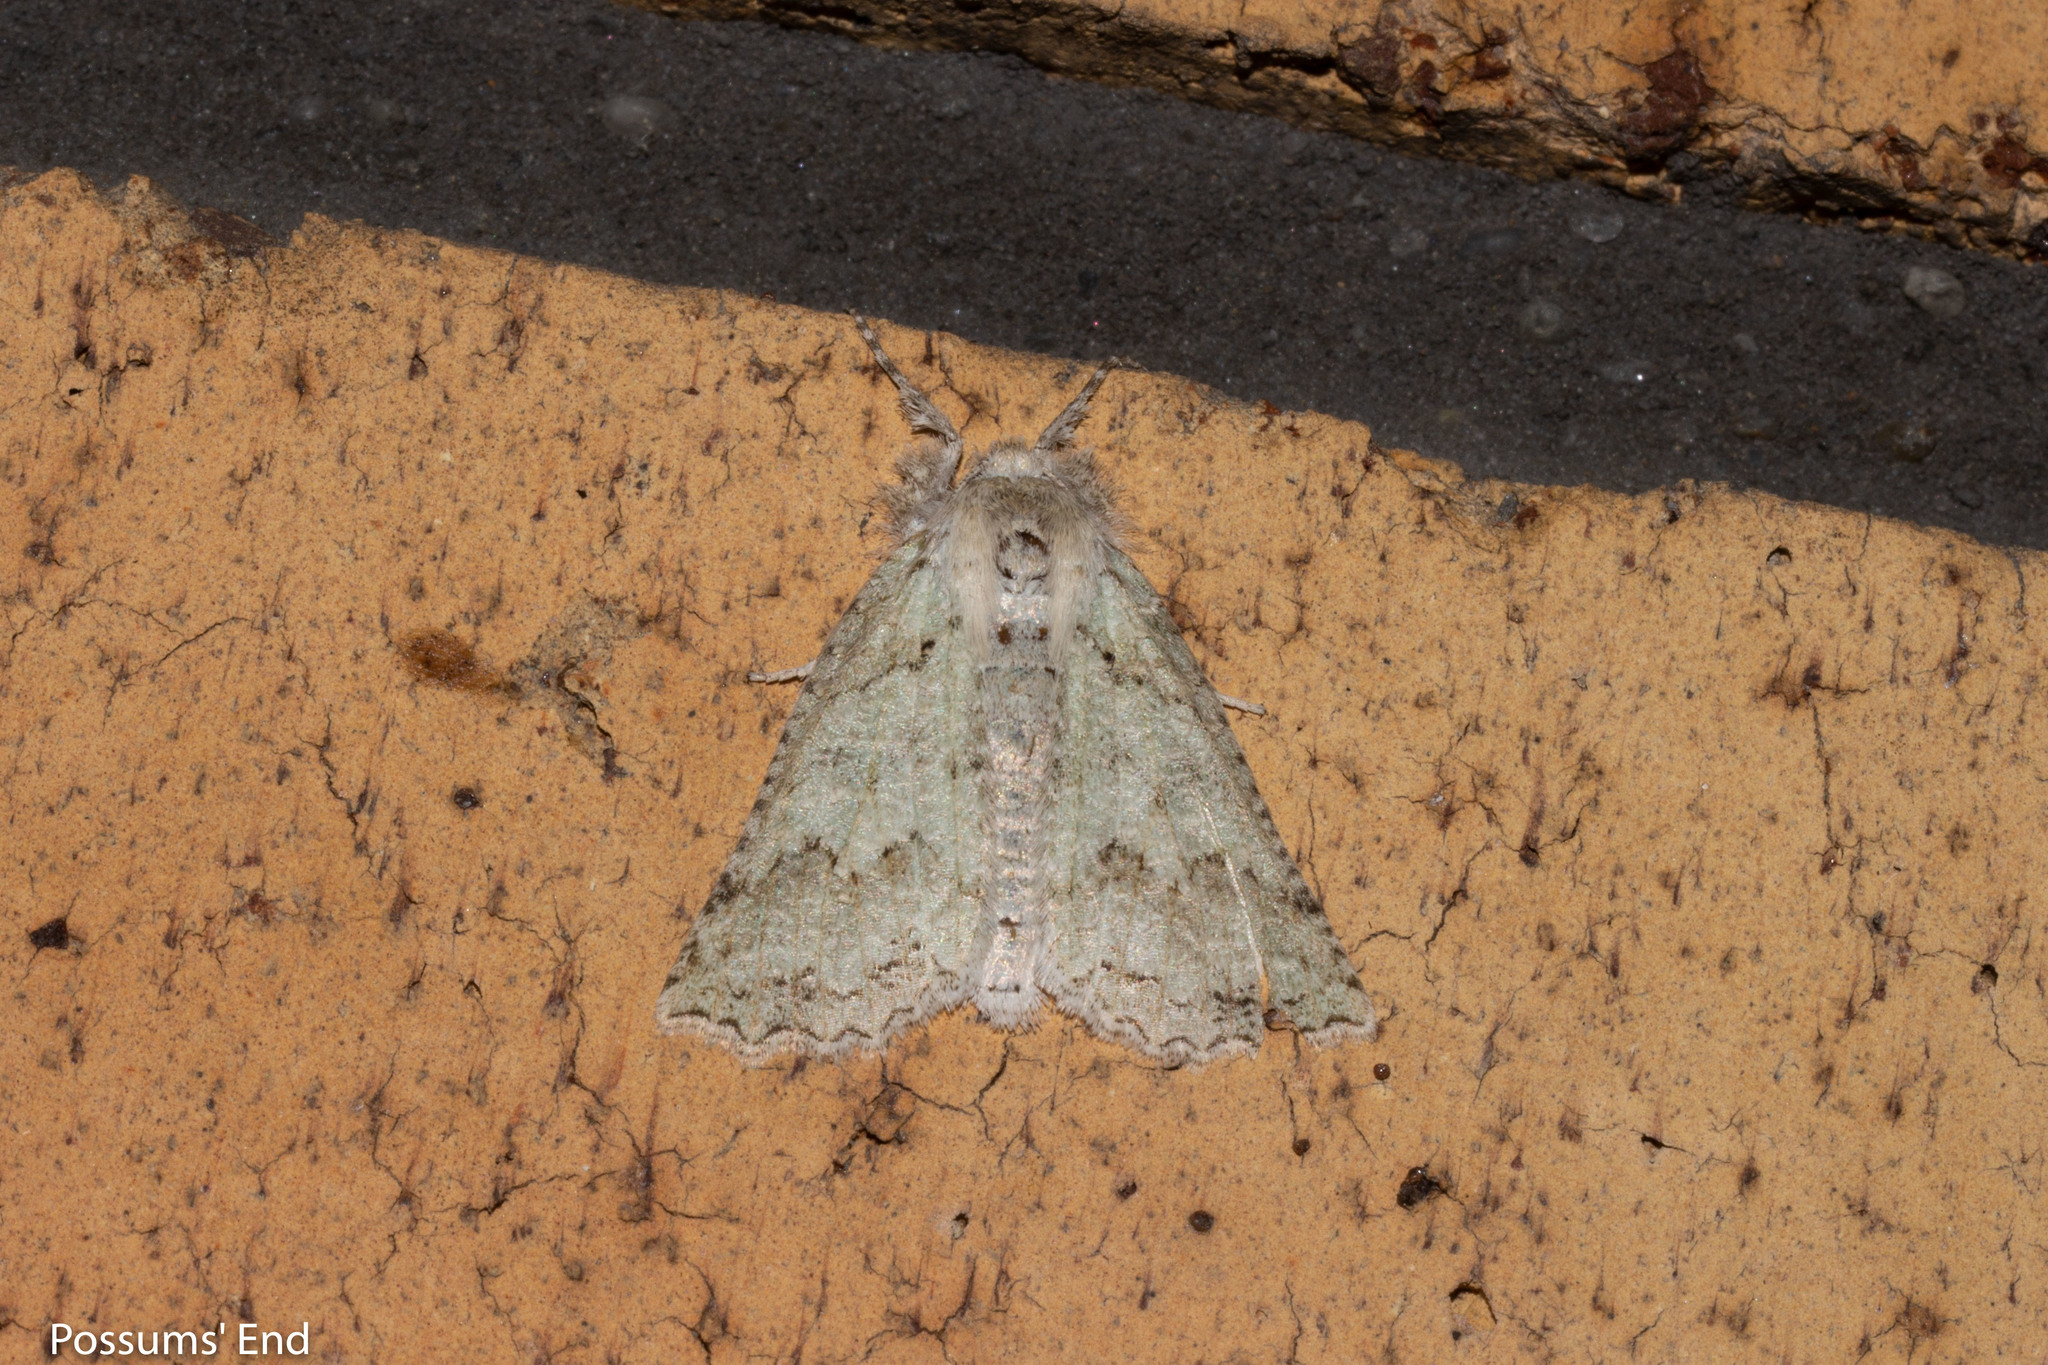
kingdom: Animalia
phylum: Arthropoda
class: Insecta
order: Lepidoptera
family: Geometridae
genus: Declana
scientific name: Declana niveata
